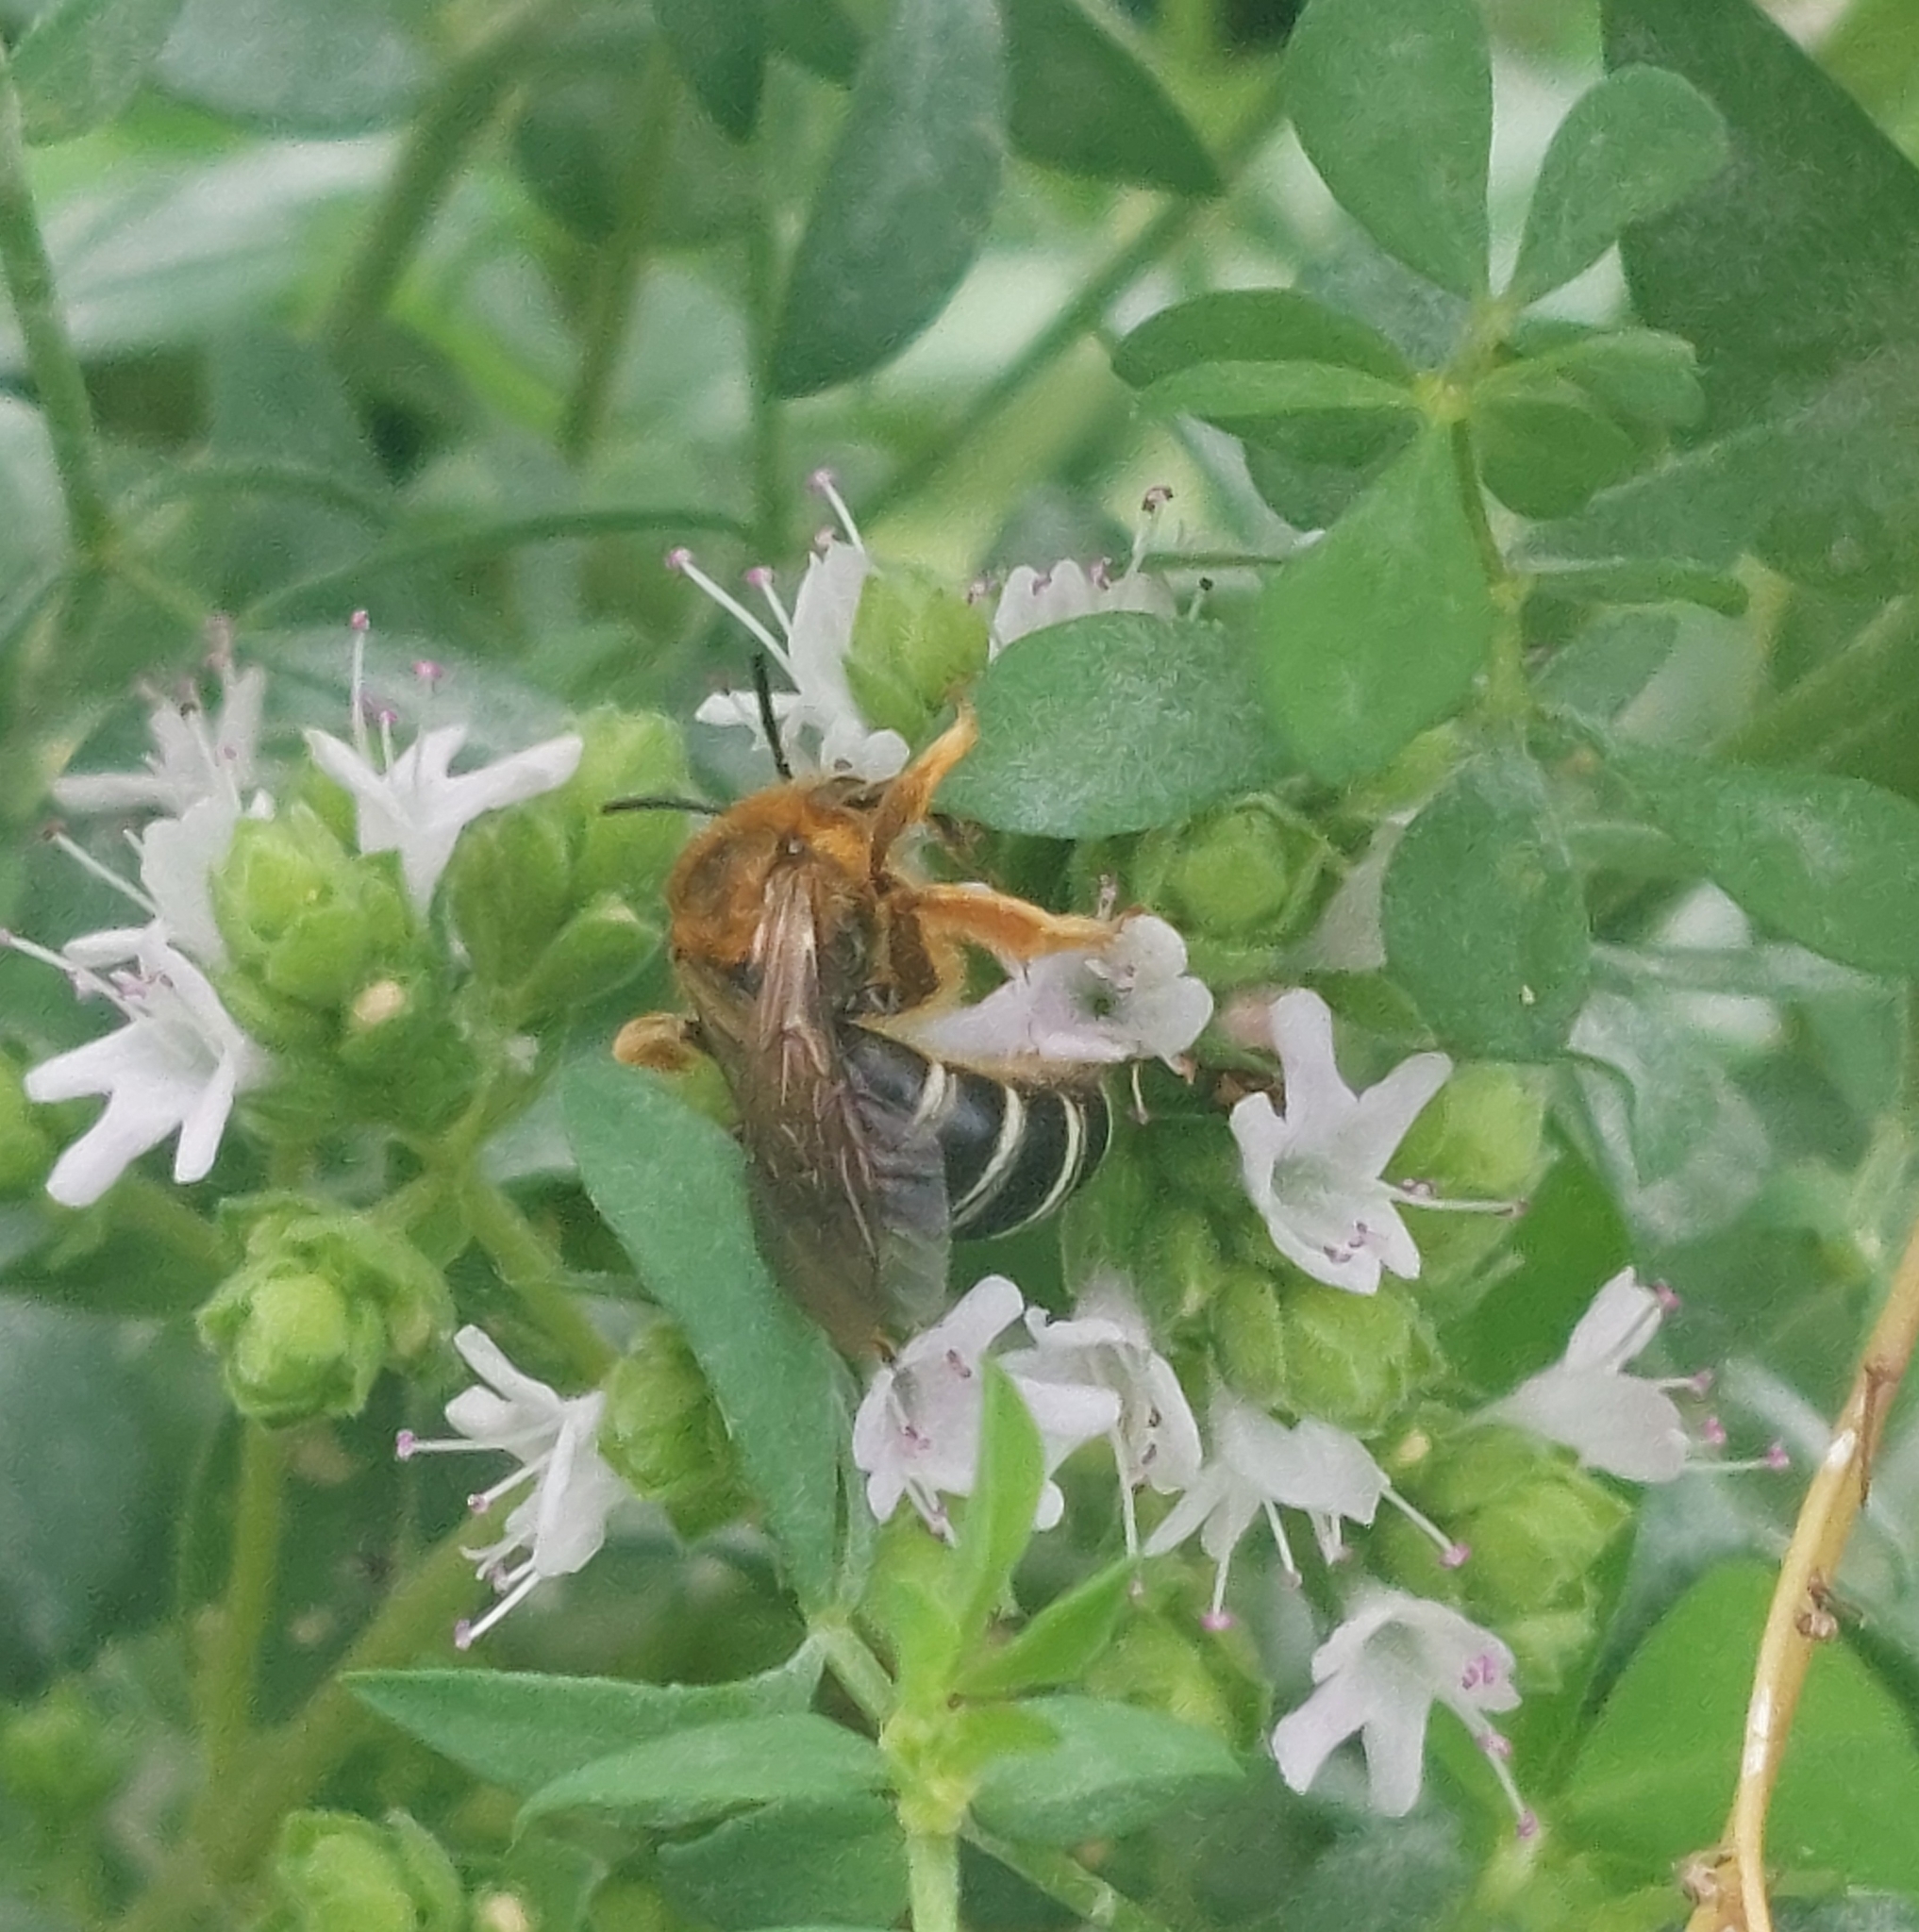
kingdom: Animalia
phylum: Arthropoda
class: Insecta
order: Hymenoptera
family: Halictidae
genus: Halictus
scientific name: Halictus rubicundus
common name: Orange-legged furrow bee
